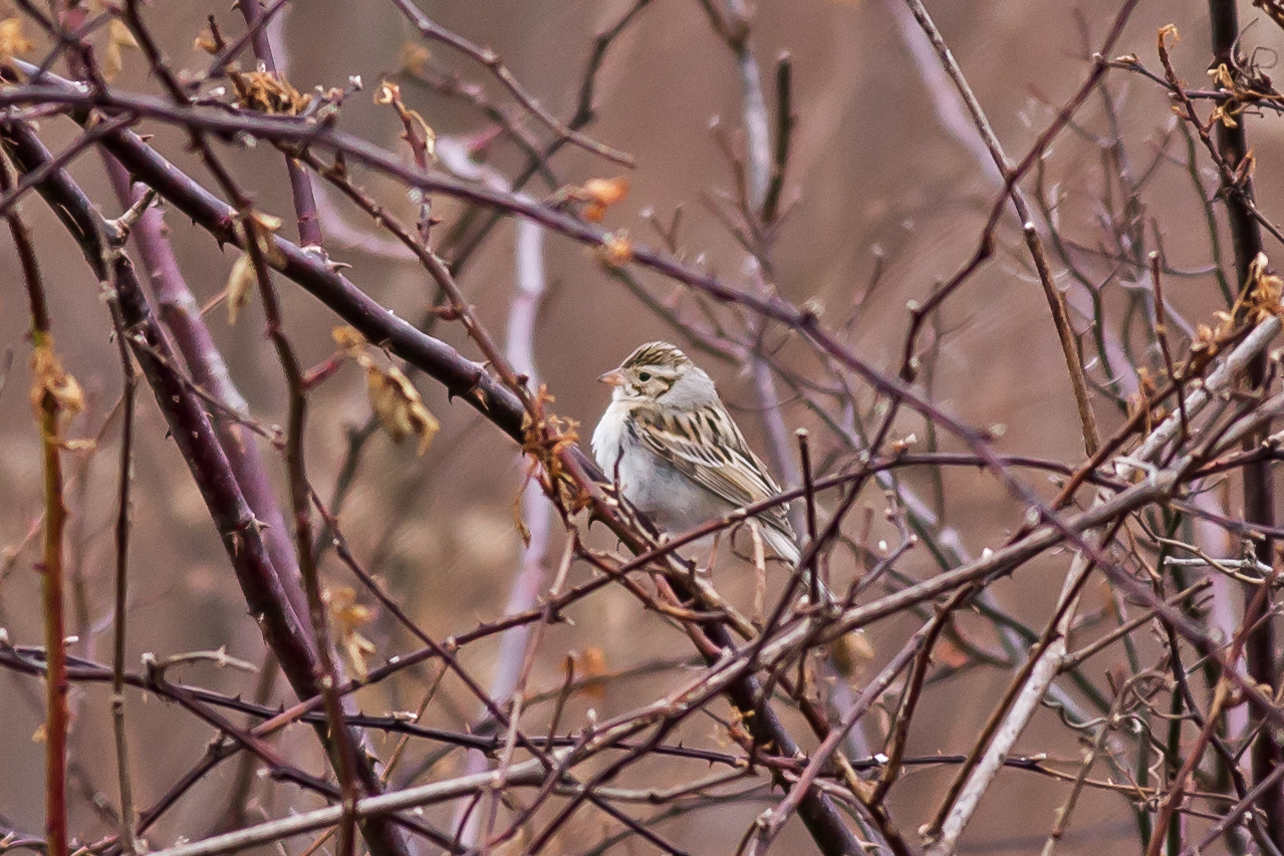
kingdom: Animalia
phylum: Chordata
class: Aves
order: Passeriformes
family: Passerellidae
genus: Spizella
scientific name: Spizella pallida
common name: Clay-colored sparrow
